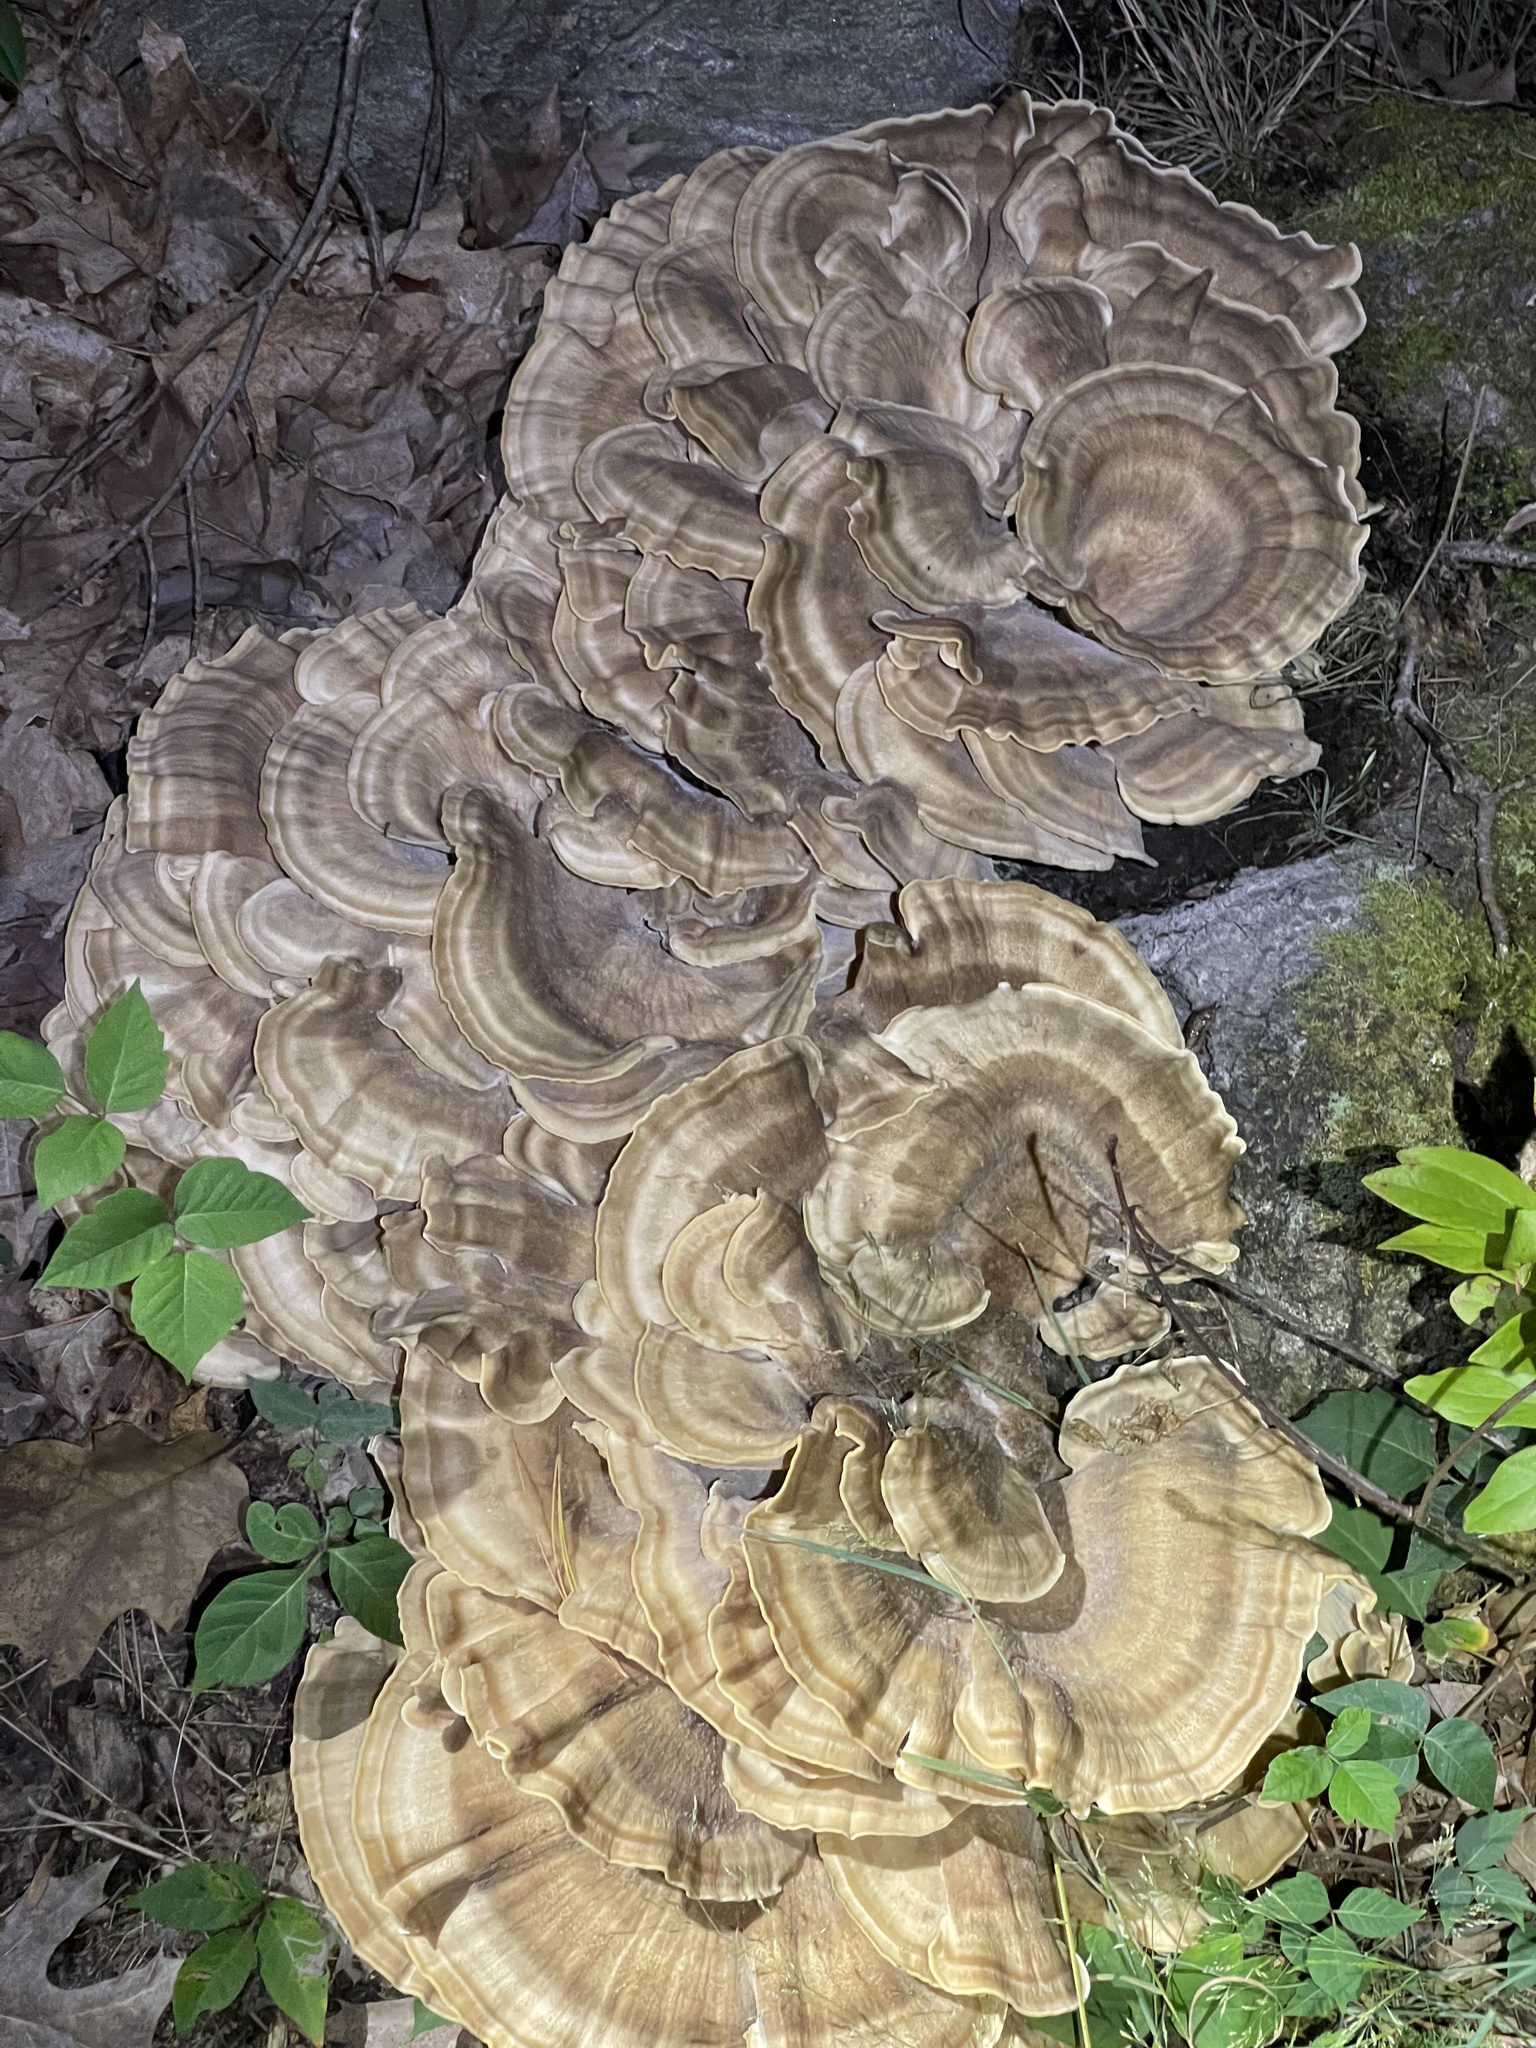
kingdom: Fungi
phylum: Basidiomycota
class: Agaricomycetes
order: Polyporales
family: Meripilaceae
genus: Meripilus
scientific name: Meripilus sumstinei
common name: Black-staining polypore
